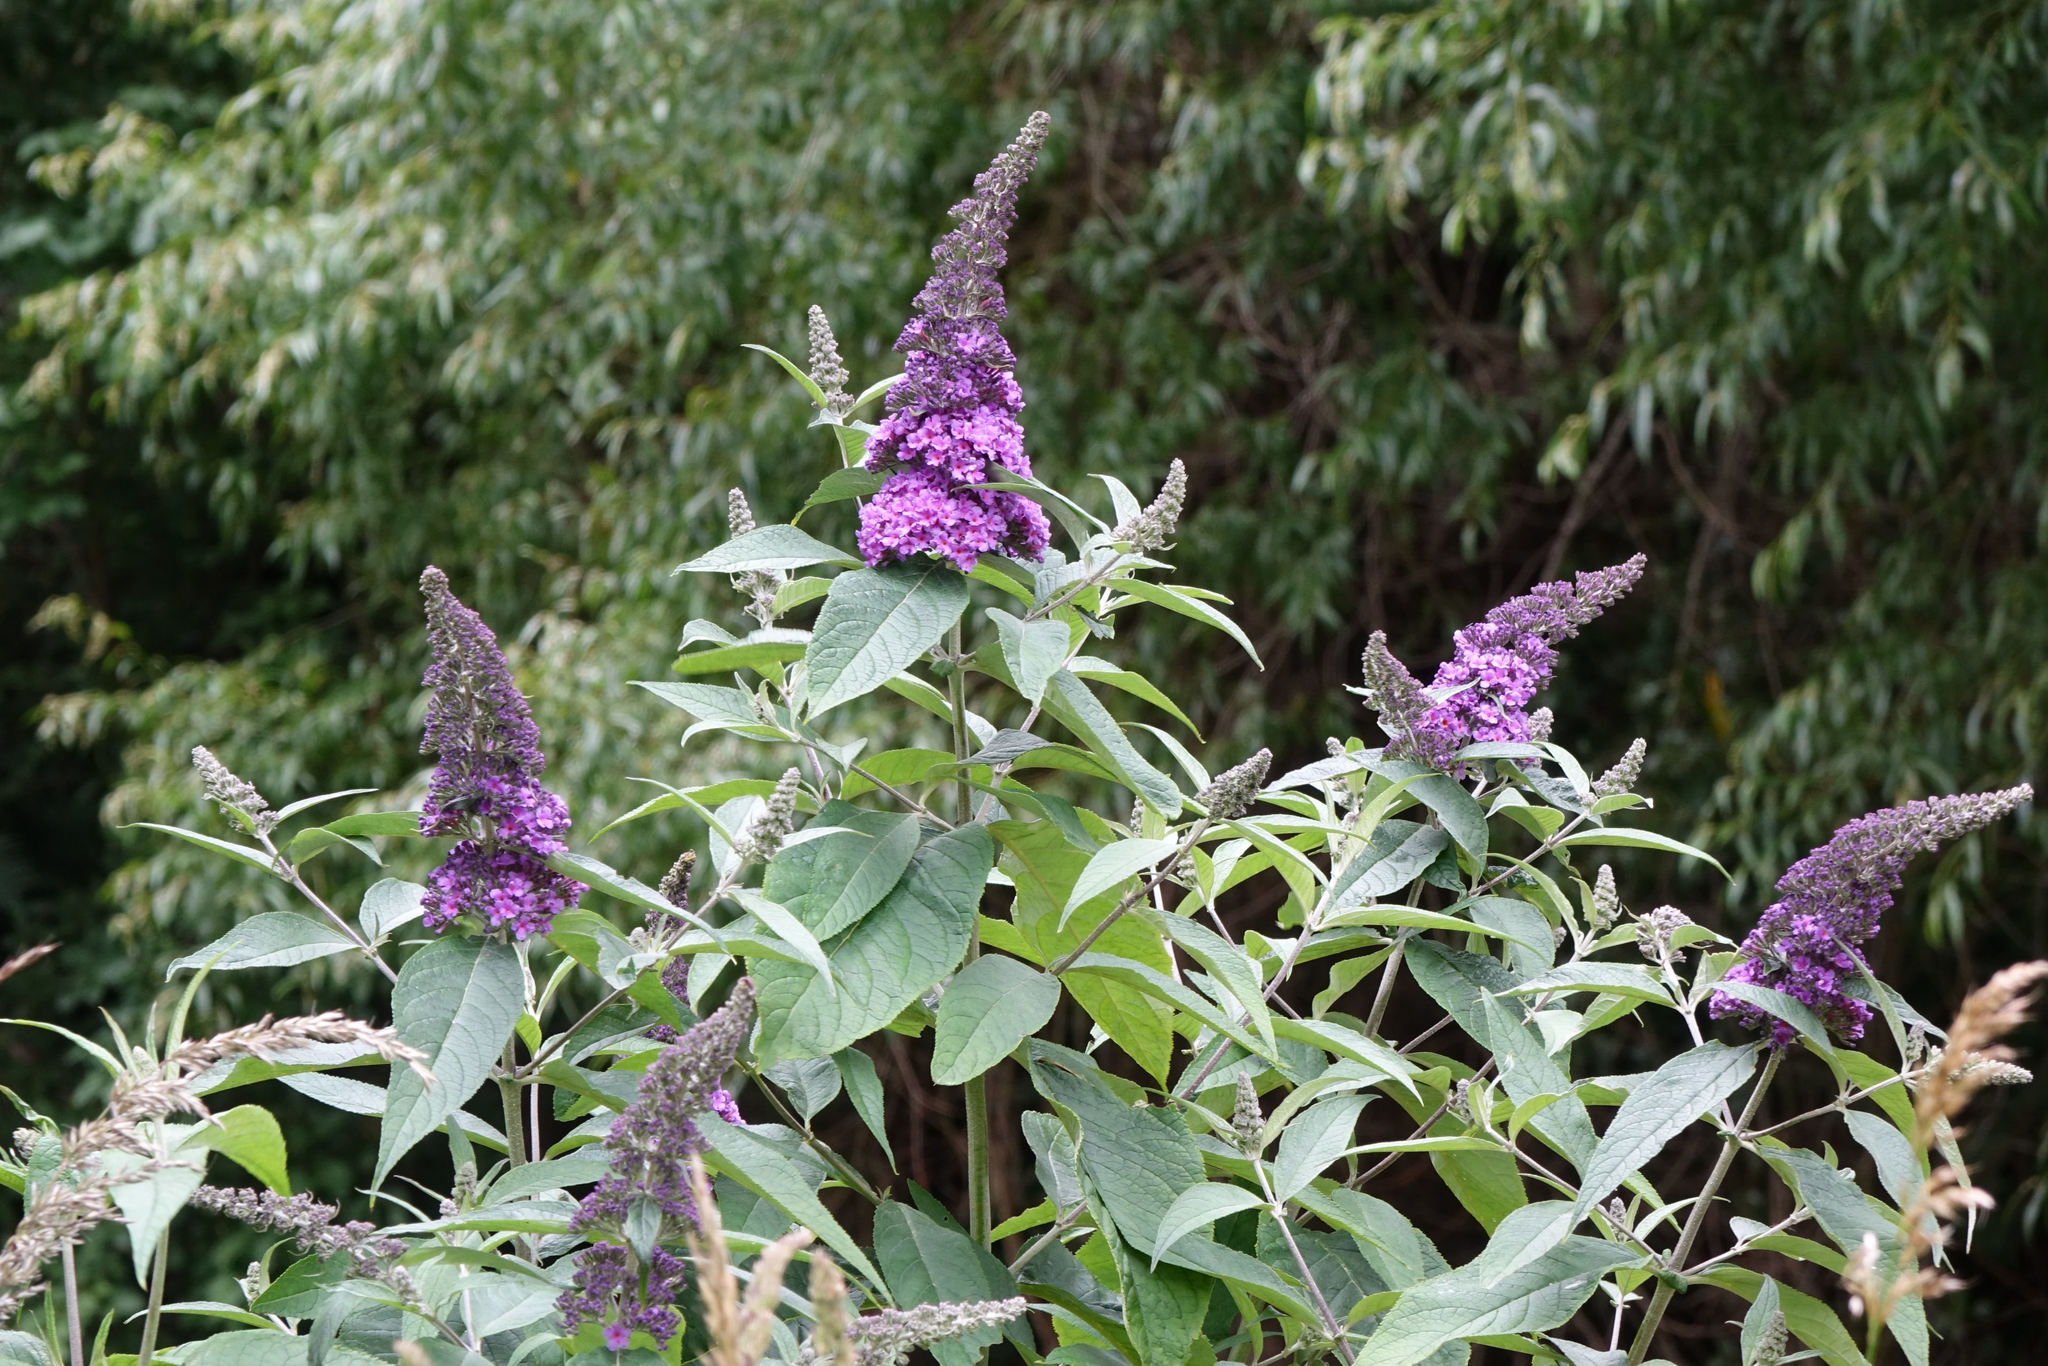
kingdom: Plantae
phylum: Tracheophyta
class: Magnoliopsida
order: Lamiales
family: Scrophulariaceae
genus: Buddleja
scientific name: Buddleja davidii
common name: Butterfly-bush
